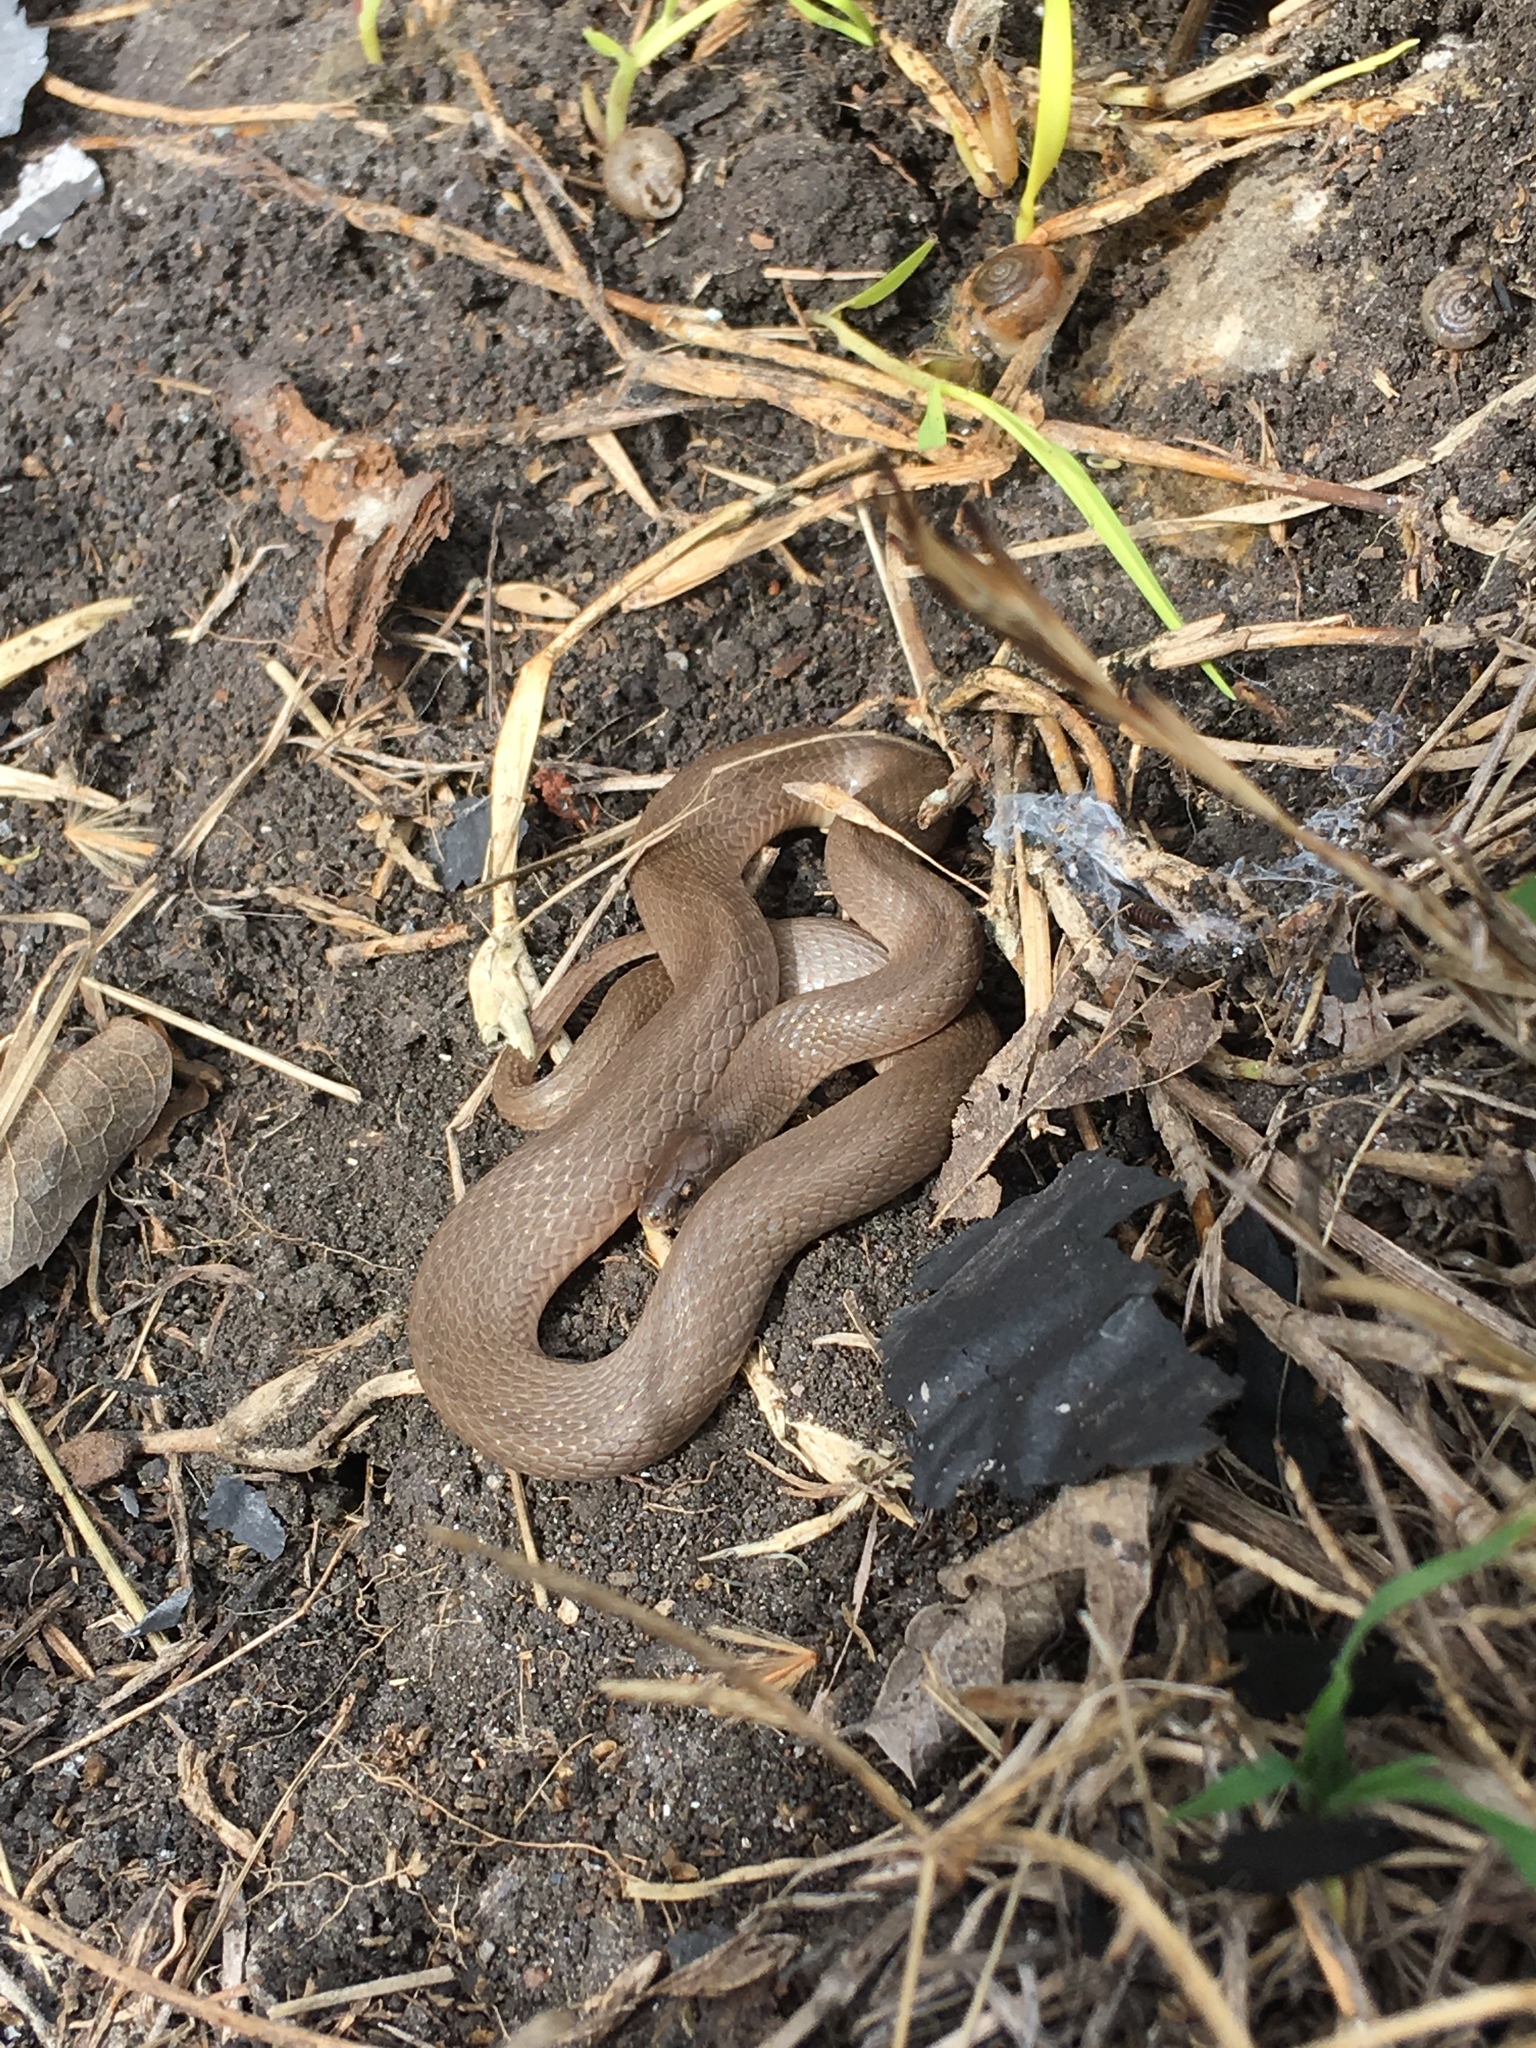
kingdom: Animalia
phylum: Chordata
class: Squamata
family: Colubridae
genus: Haldea
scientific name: Haldea striatula
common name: Rough earth snake
